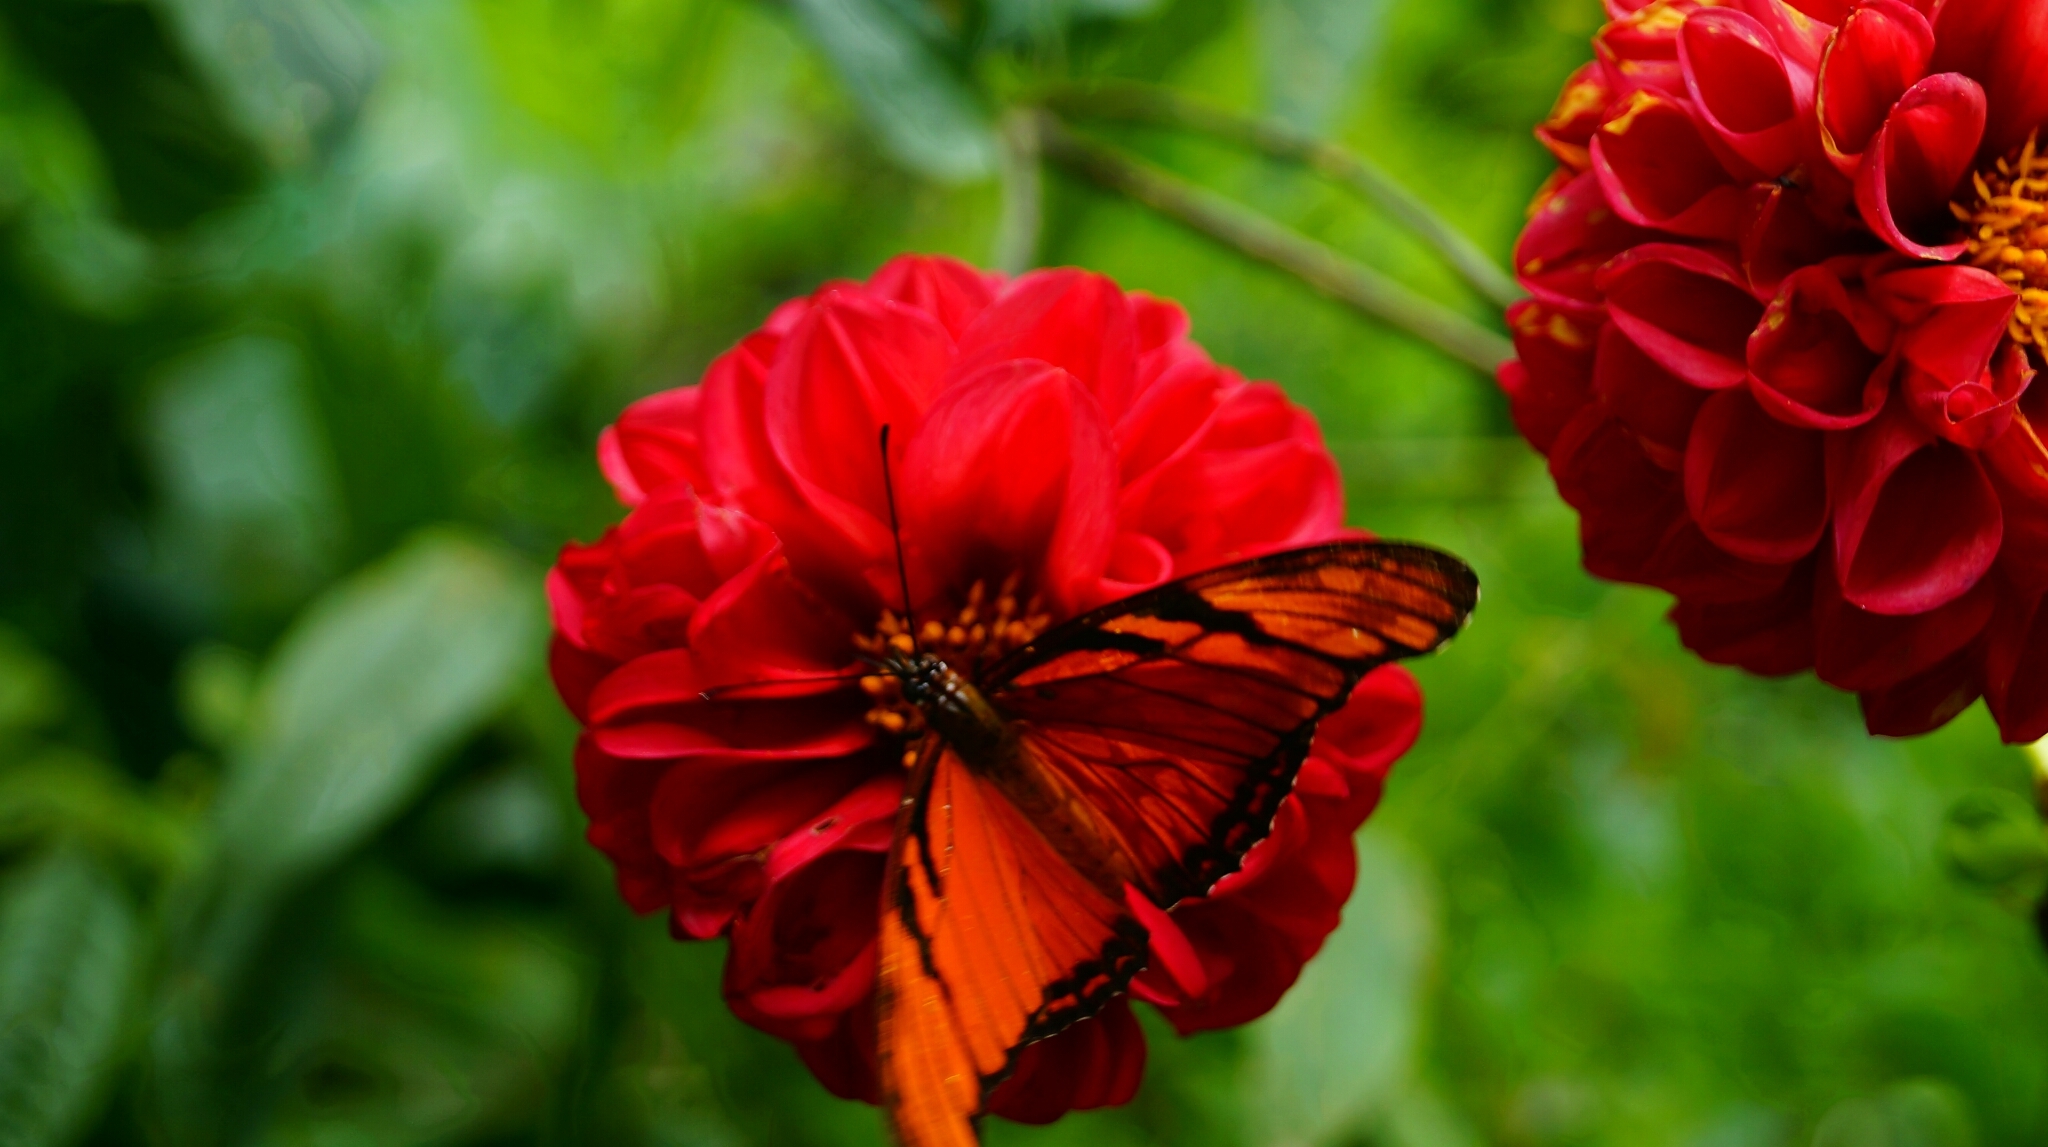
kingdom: Animalia
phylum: Arthropoda
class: Insecta
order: Lepidoptera
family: Nymphalidae
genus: Dione
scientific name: Dione juno
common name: Juno silverspot
